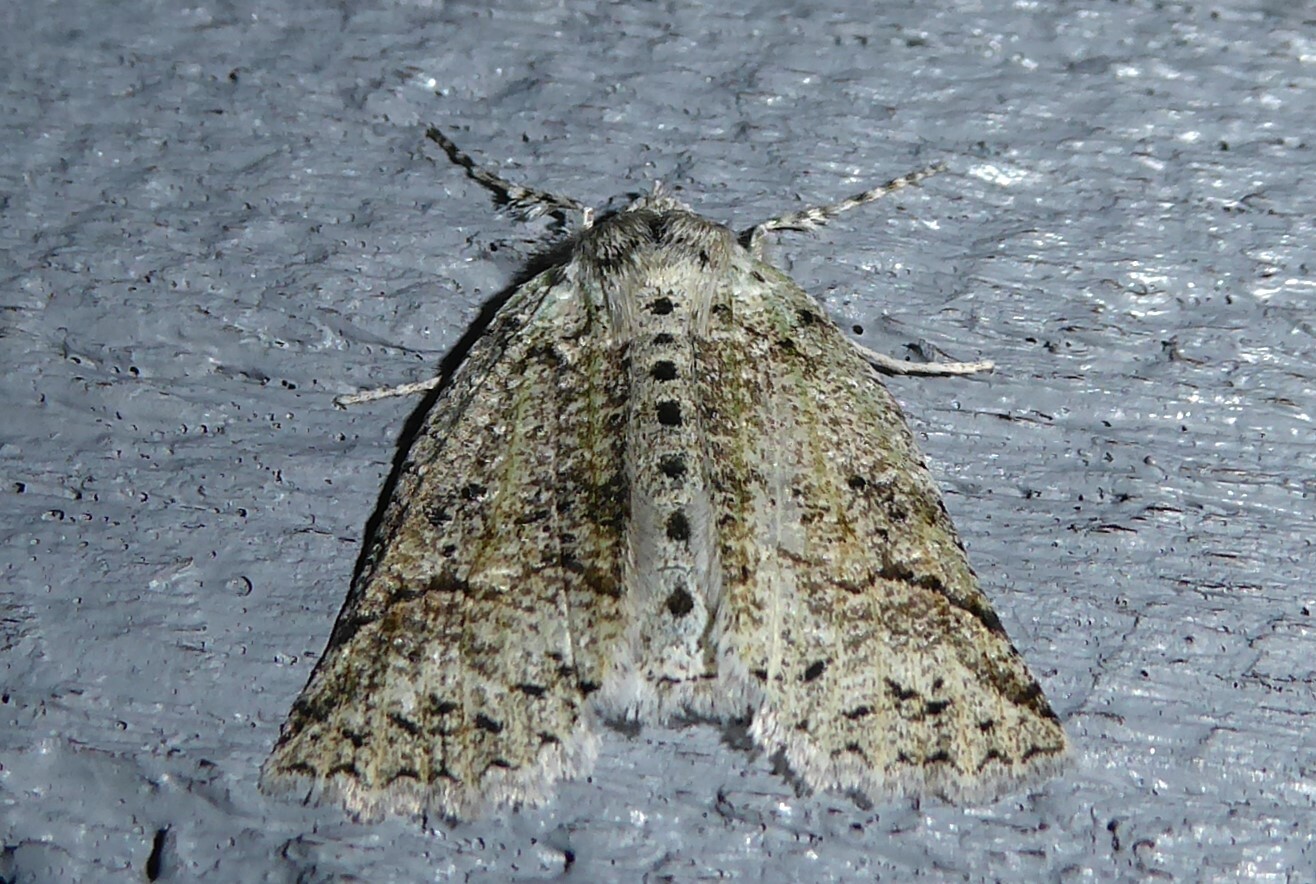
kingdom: Animalia
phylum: Arthropoda
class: Insecta
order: Lepidoptera
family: Geometridae
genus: Declana
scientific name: Declana floccosa
